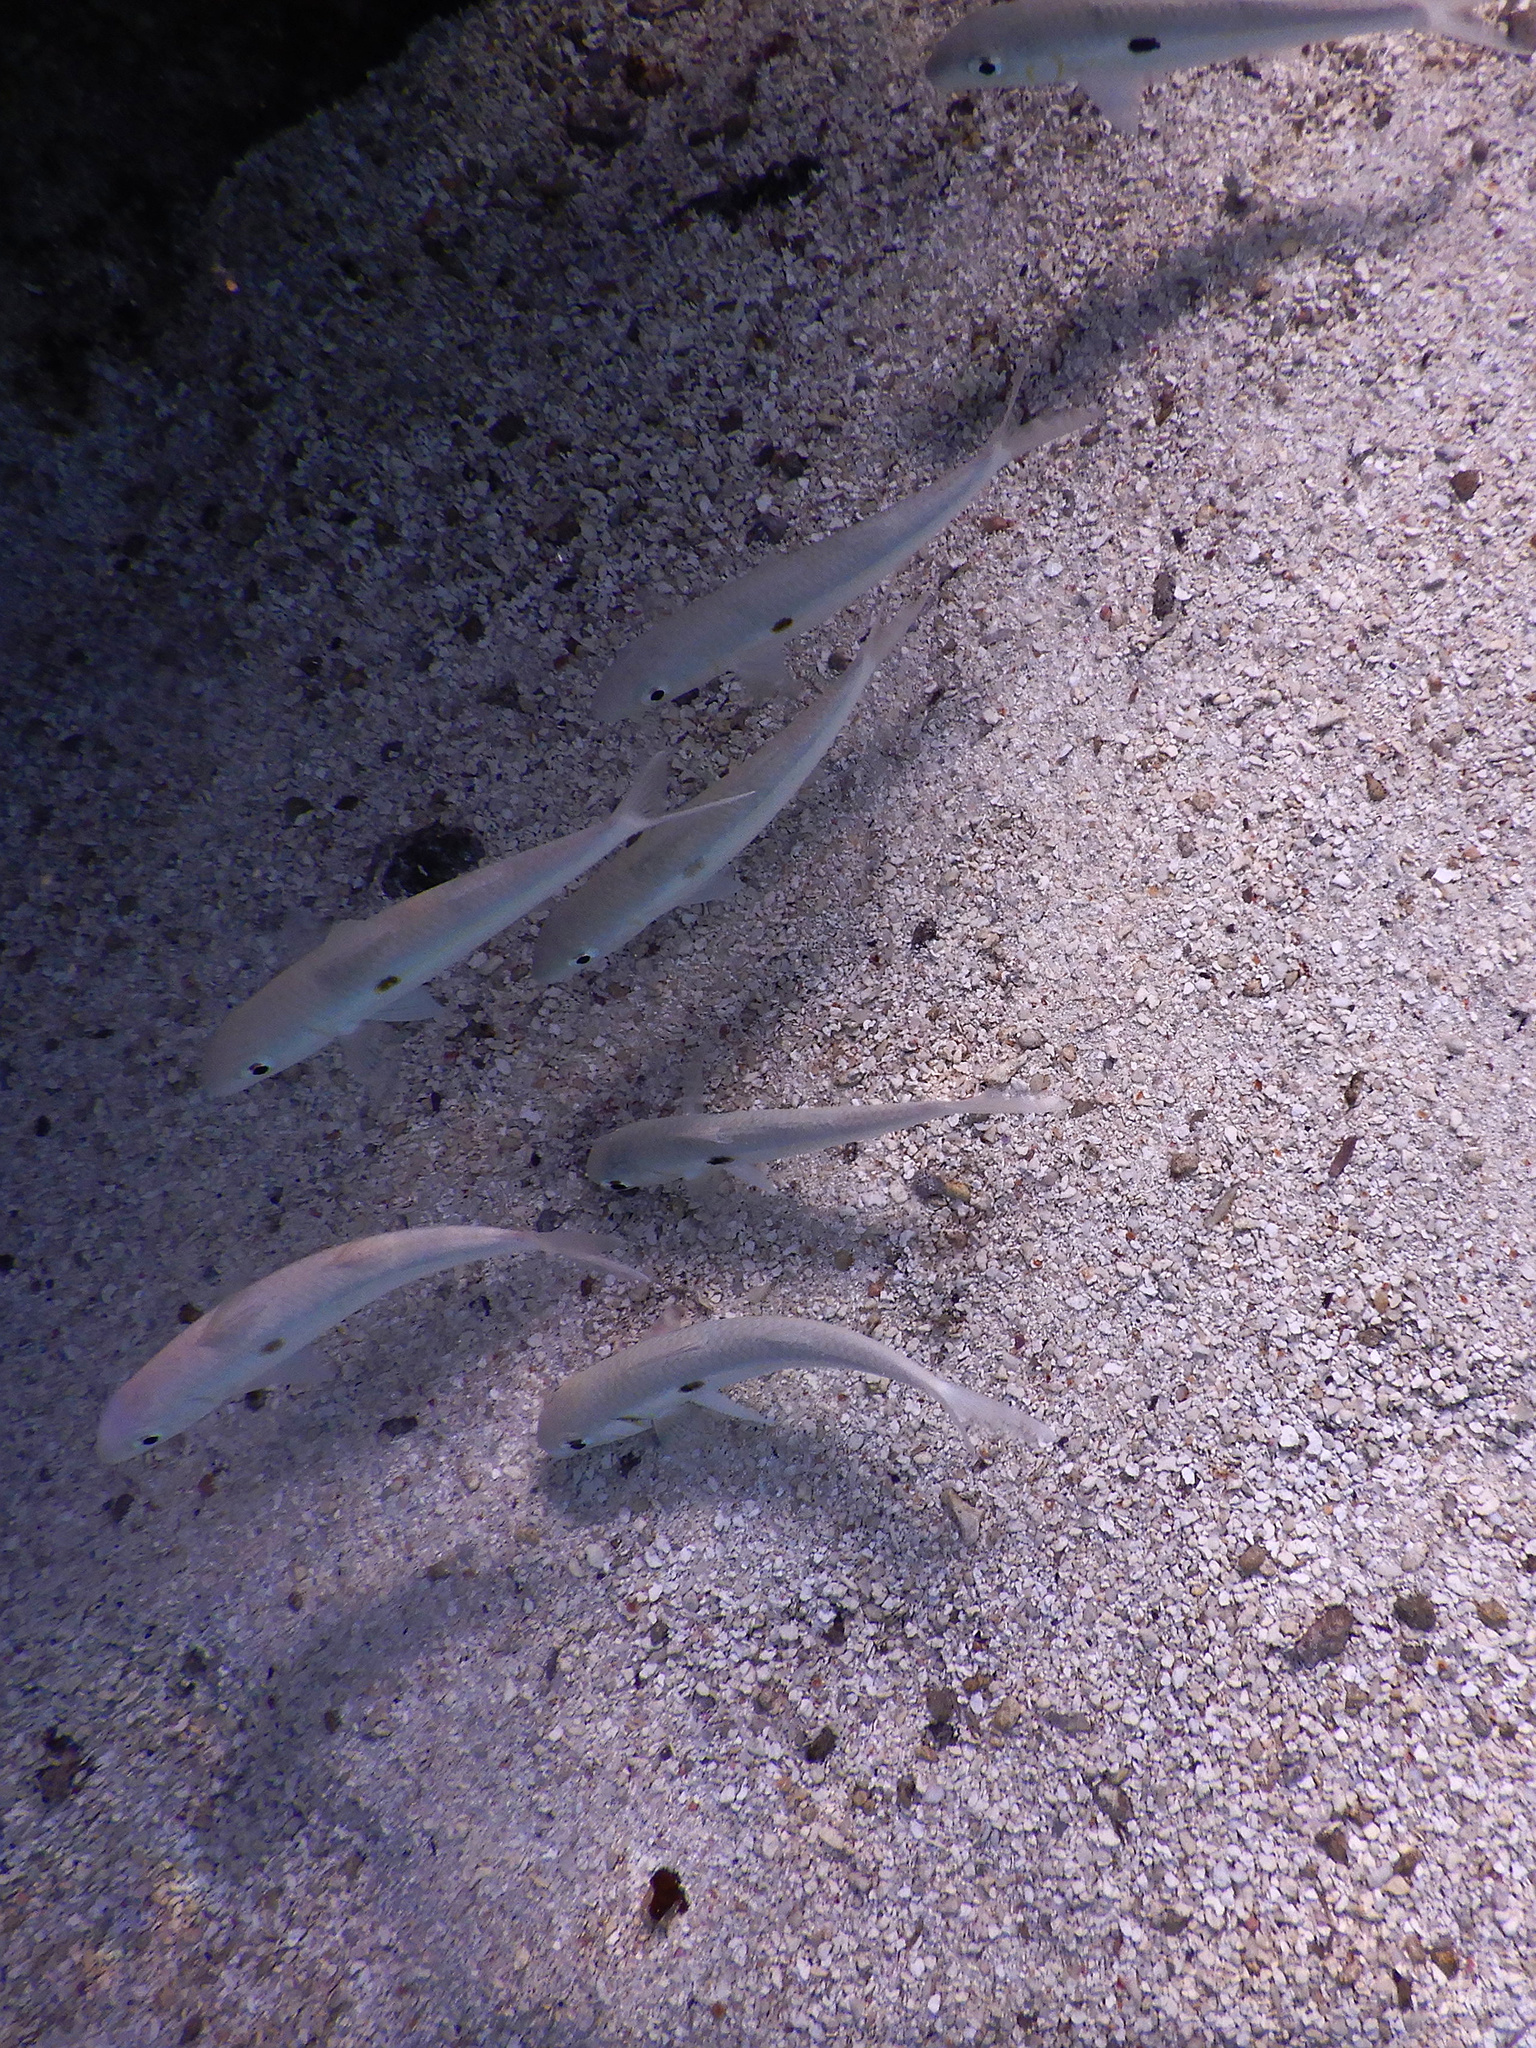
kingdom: Animalia
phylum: Chordata
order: Perciformes
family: Mullidae
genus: Mulloidichthys
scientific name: Mulloidichthys flavolineatus
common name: Yellowstripe goatfish
